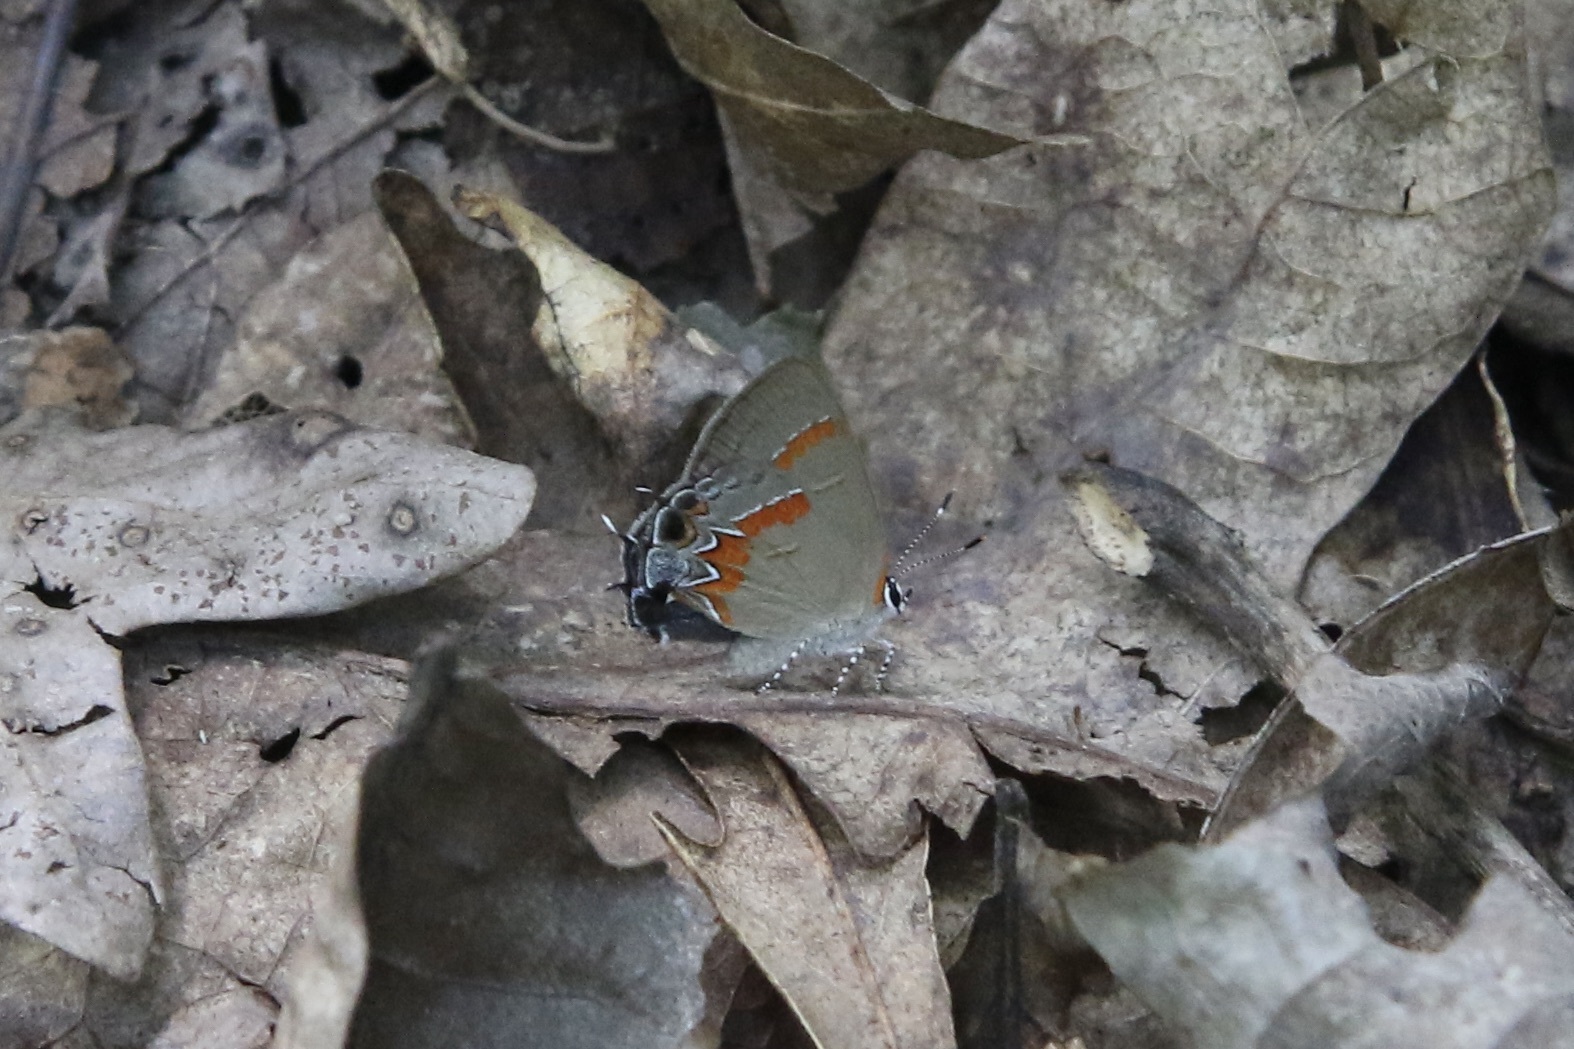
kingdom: Animalia
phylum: Arthropoda
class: Insecta
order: Lepidoptera
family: Lycaenidae
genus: Calycopis
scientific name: Calycopis cecrops
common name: Red-banded hairstreak
